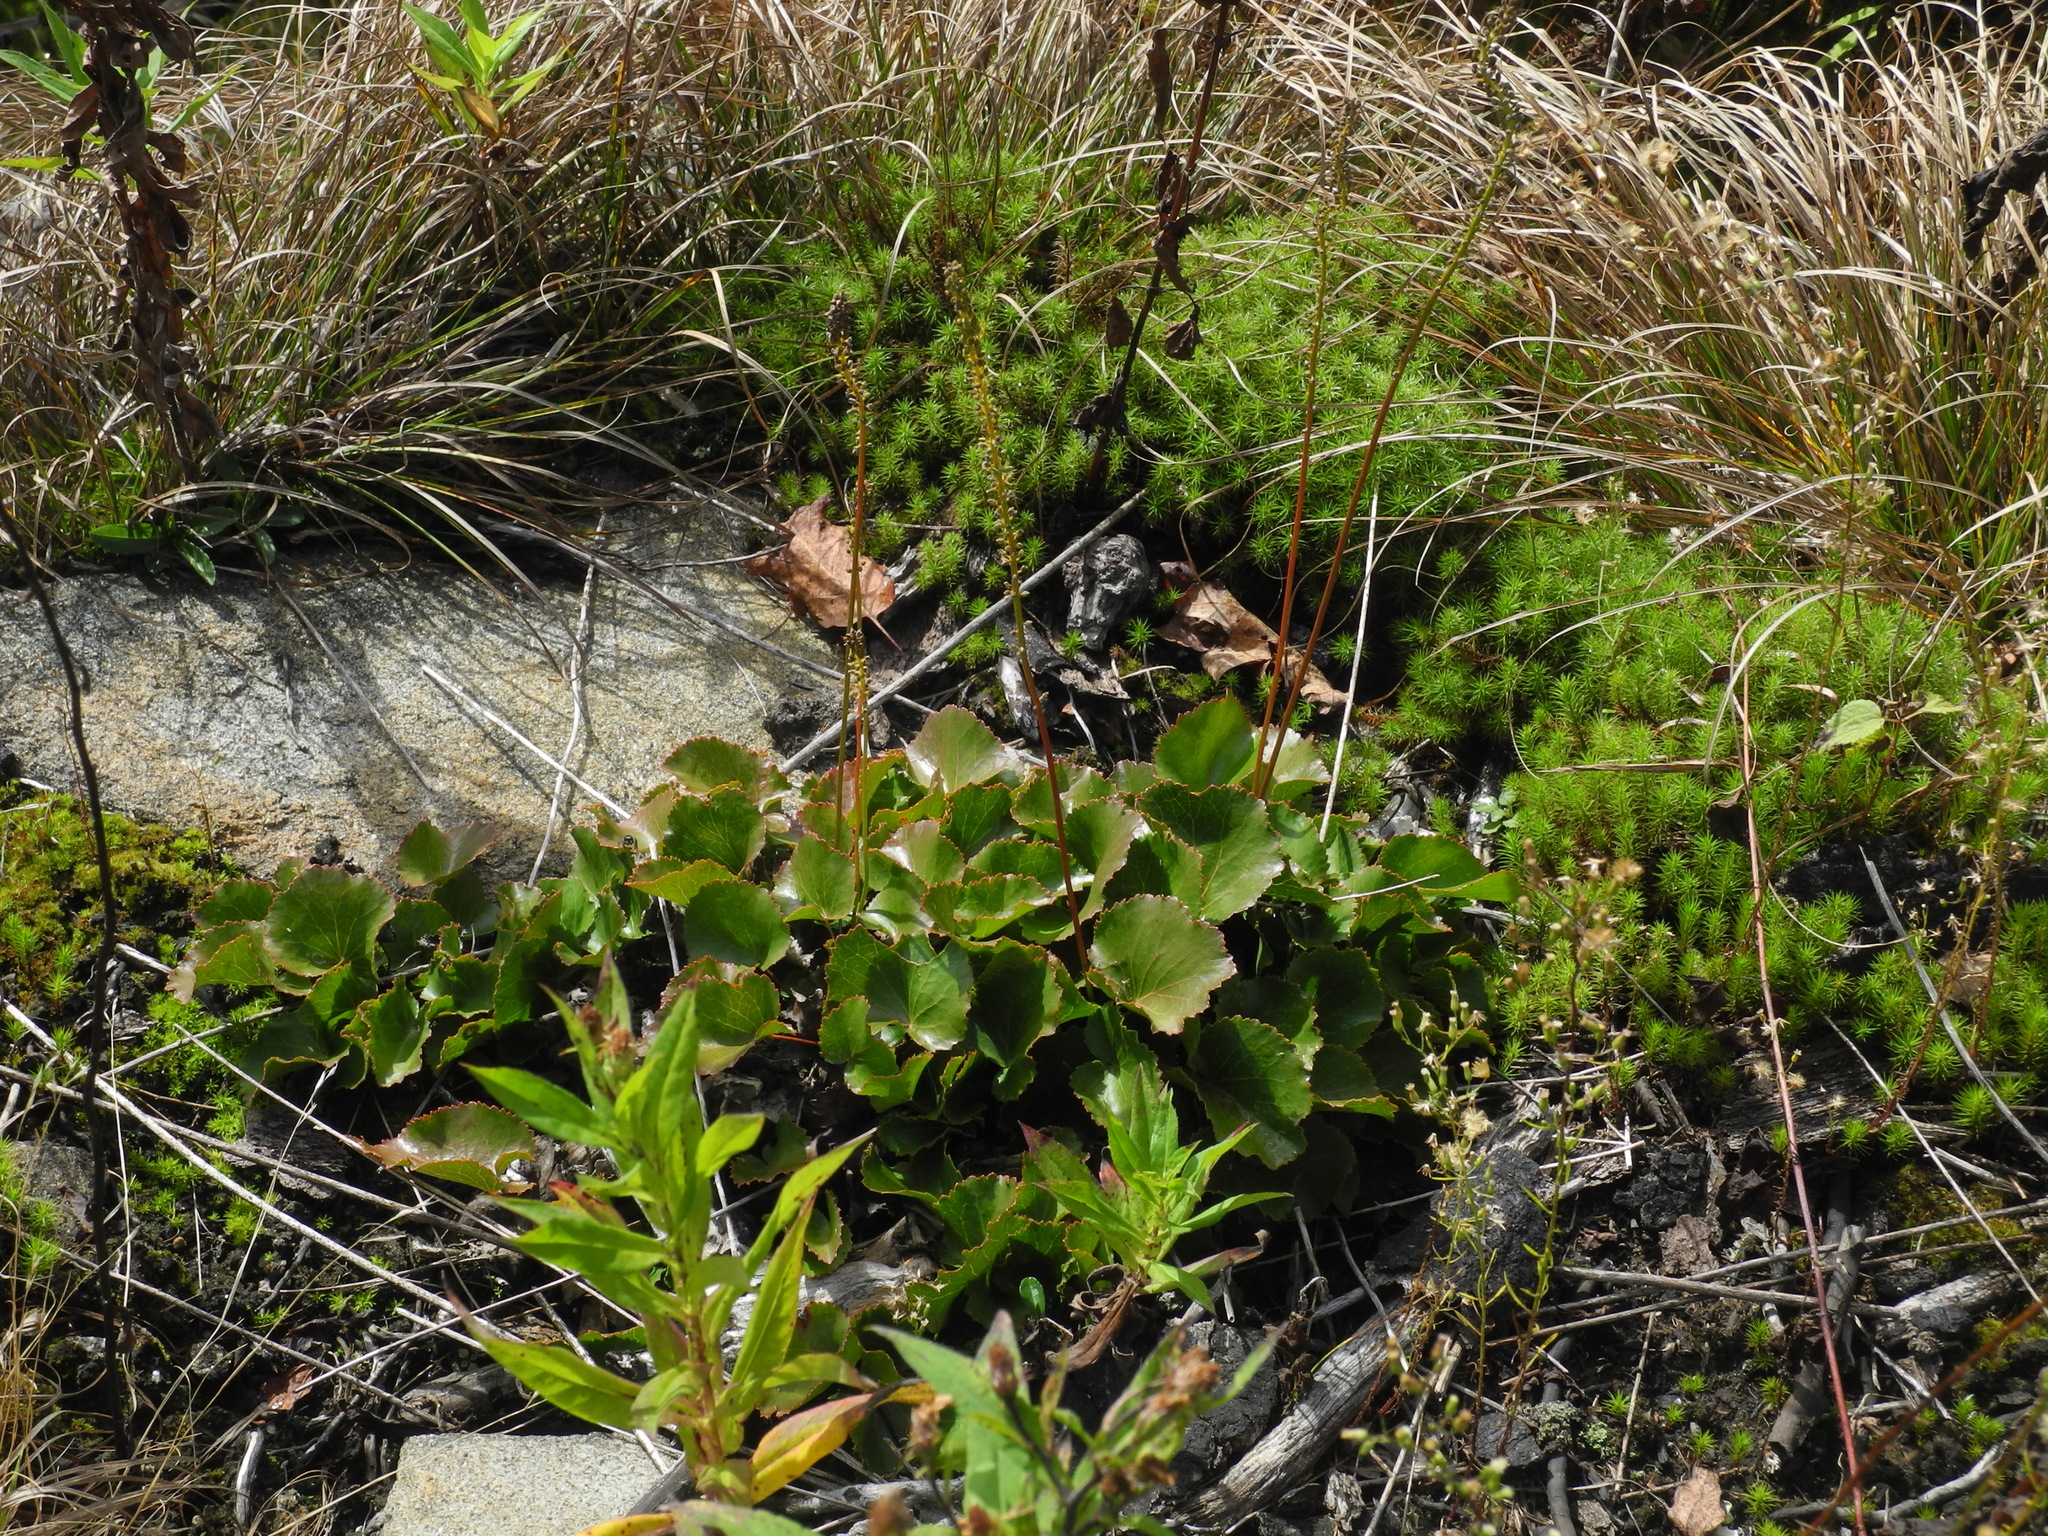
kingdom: Plantae
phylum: Tracheophyta
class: Magnoliopsida
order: Ericales
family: Diapensiaceae
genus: Galax
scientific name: Galax urceolata
